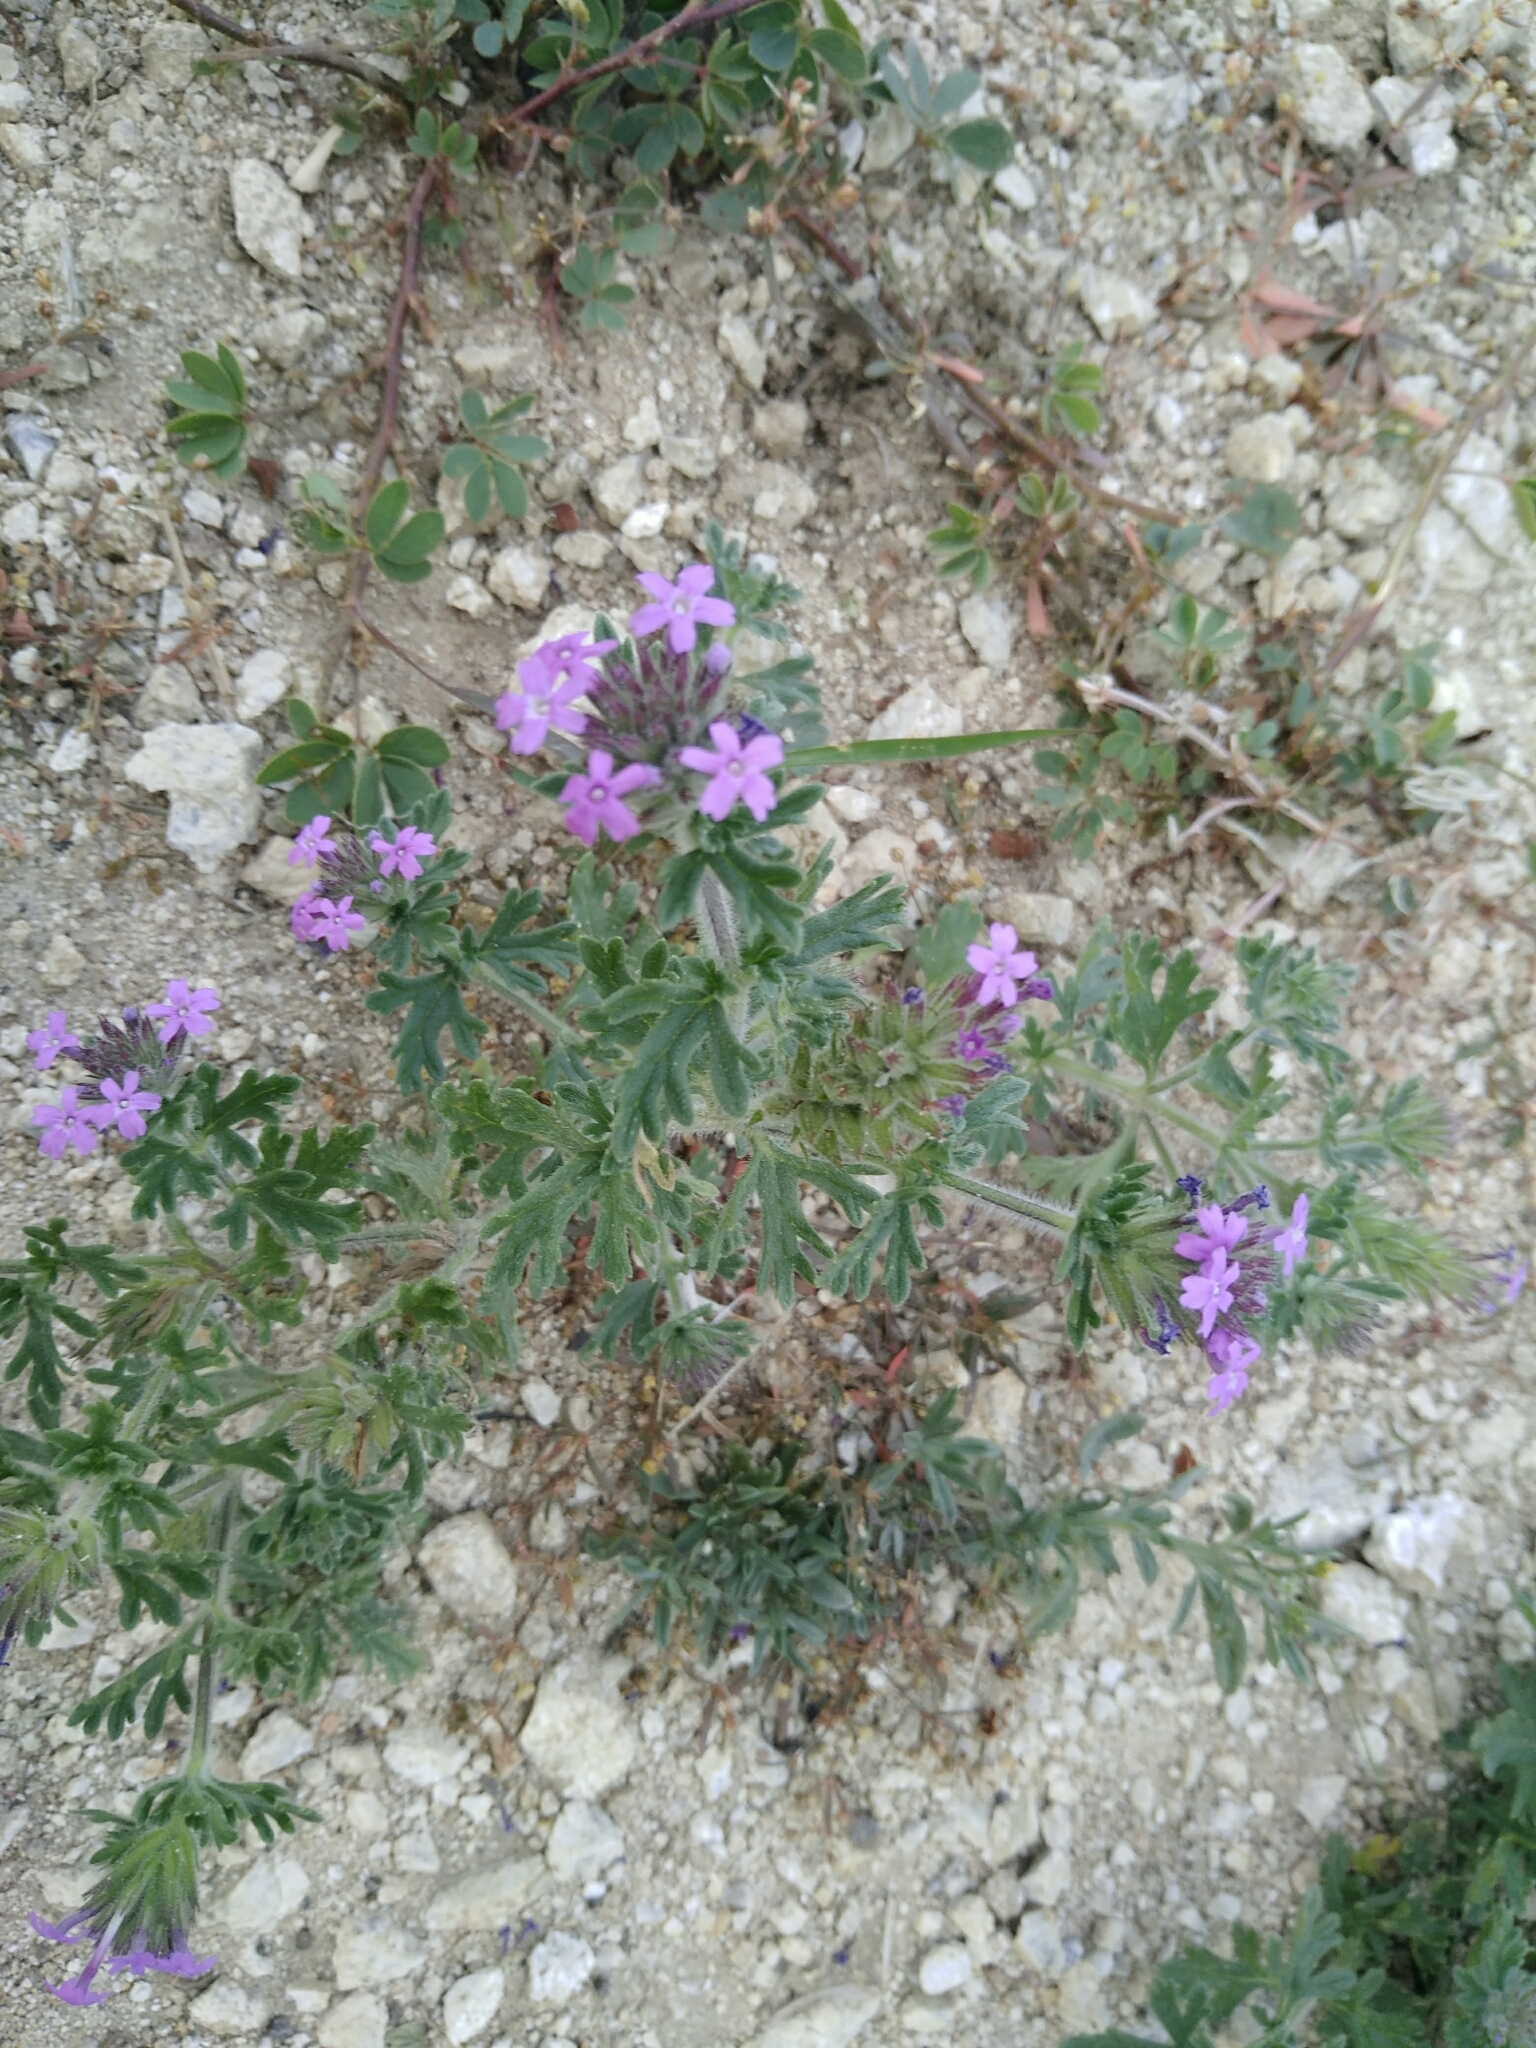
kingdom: Plantae
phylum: Tracheophyta
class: Magnoliopsida
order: Lamiales
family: Verbenaceae
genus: Verbena
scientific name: Verbena bipinnatifida
